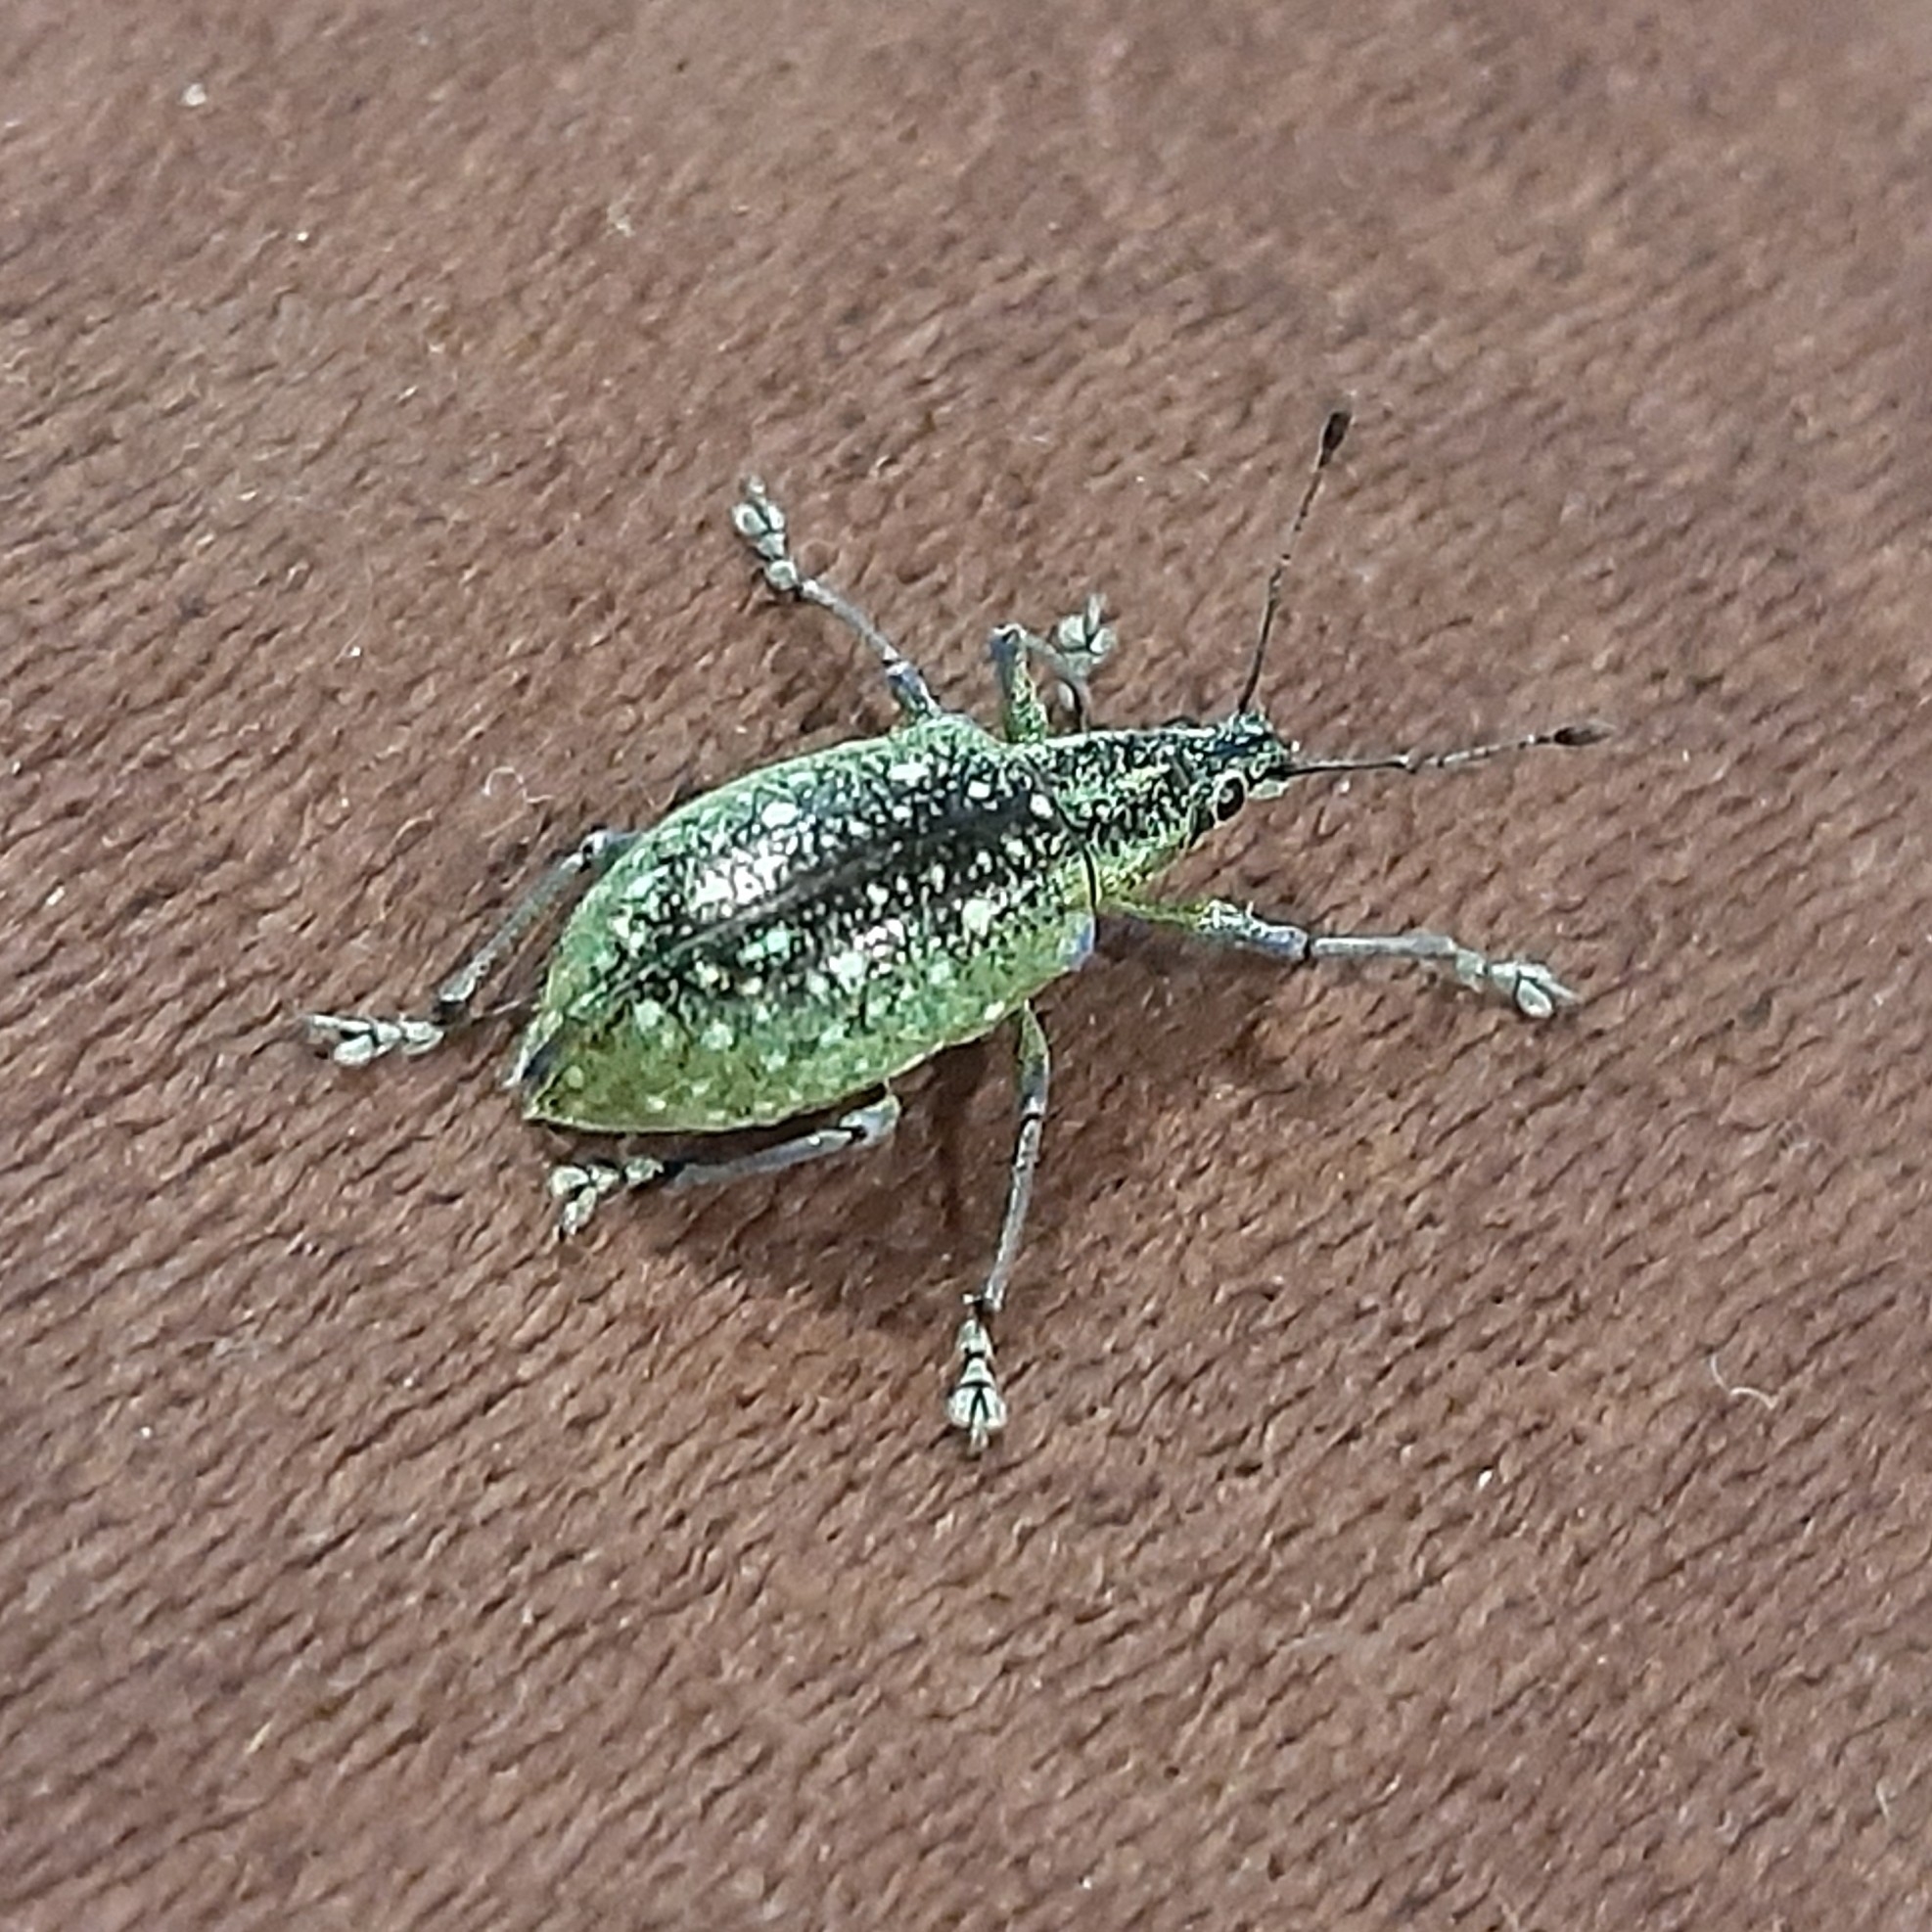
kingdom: Animalia
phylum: Arthropoda
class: Insecta
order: Coleoptera
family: Curculionidae
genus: Exophthalmus
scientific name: Exophthalmus jekelianus
